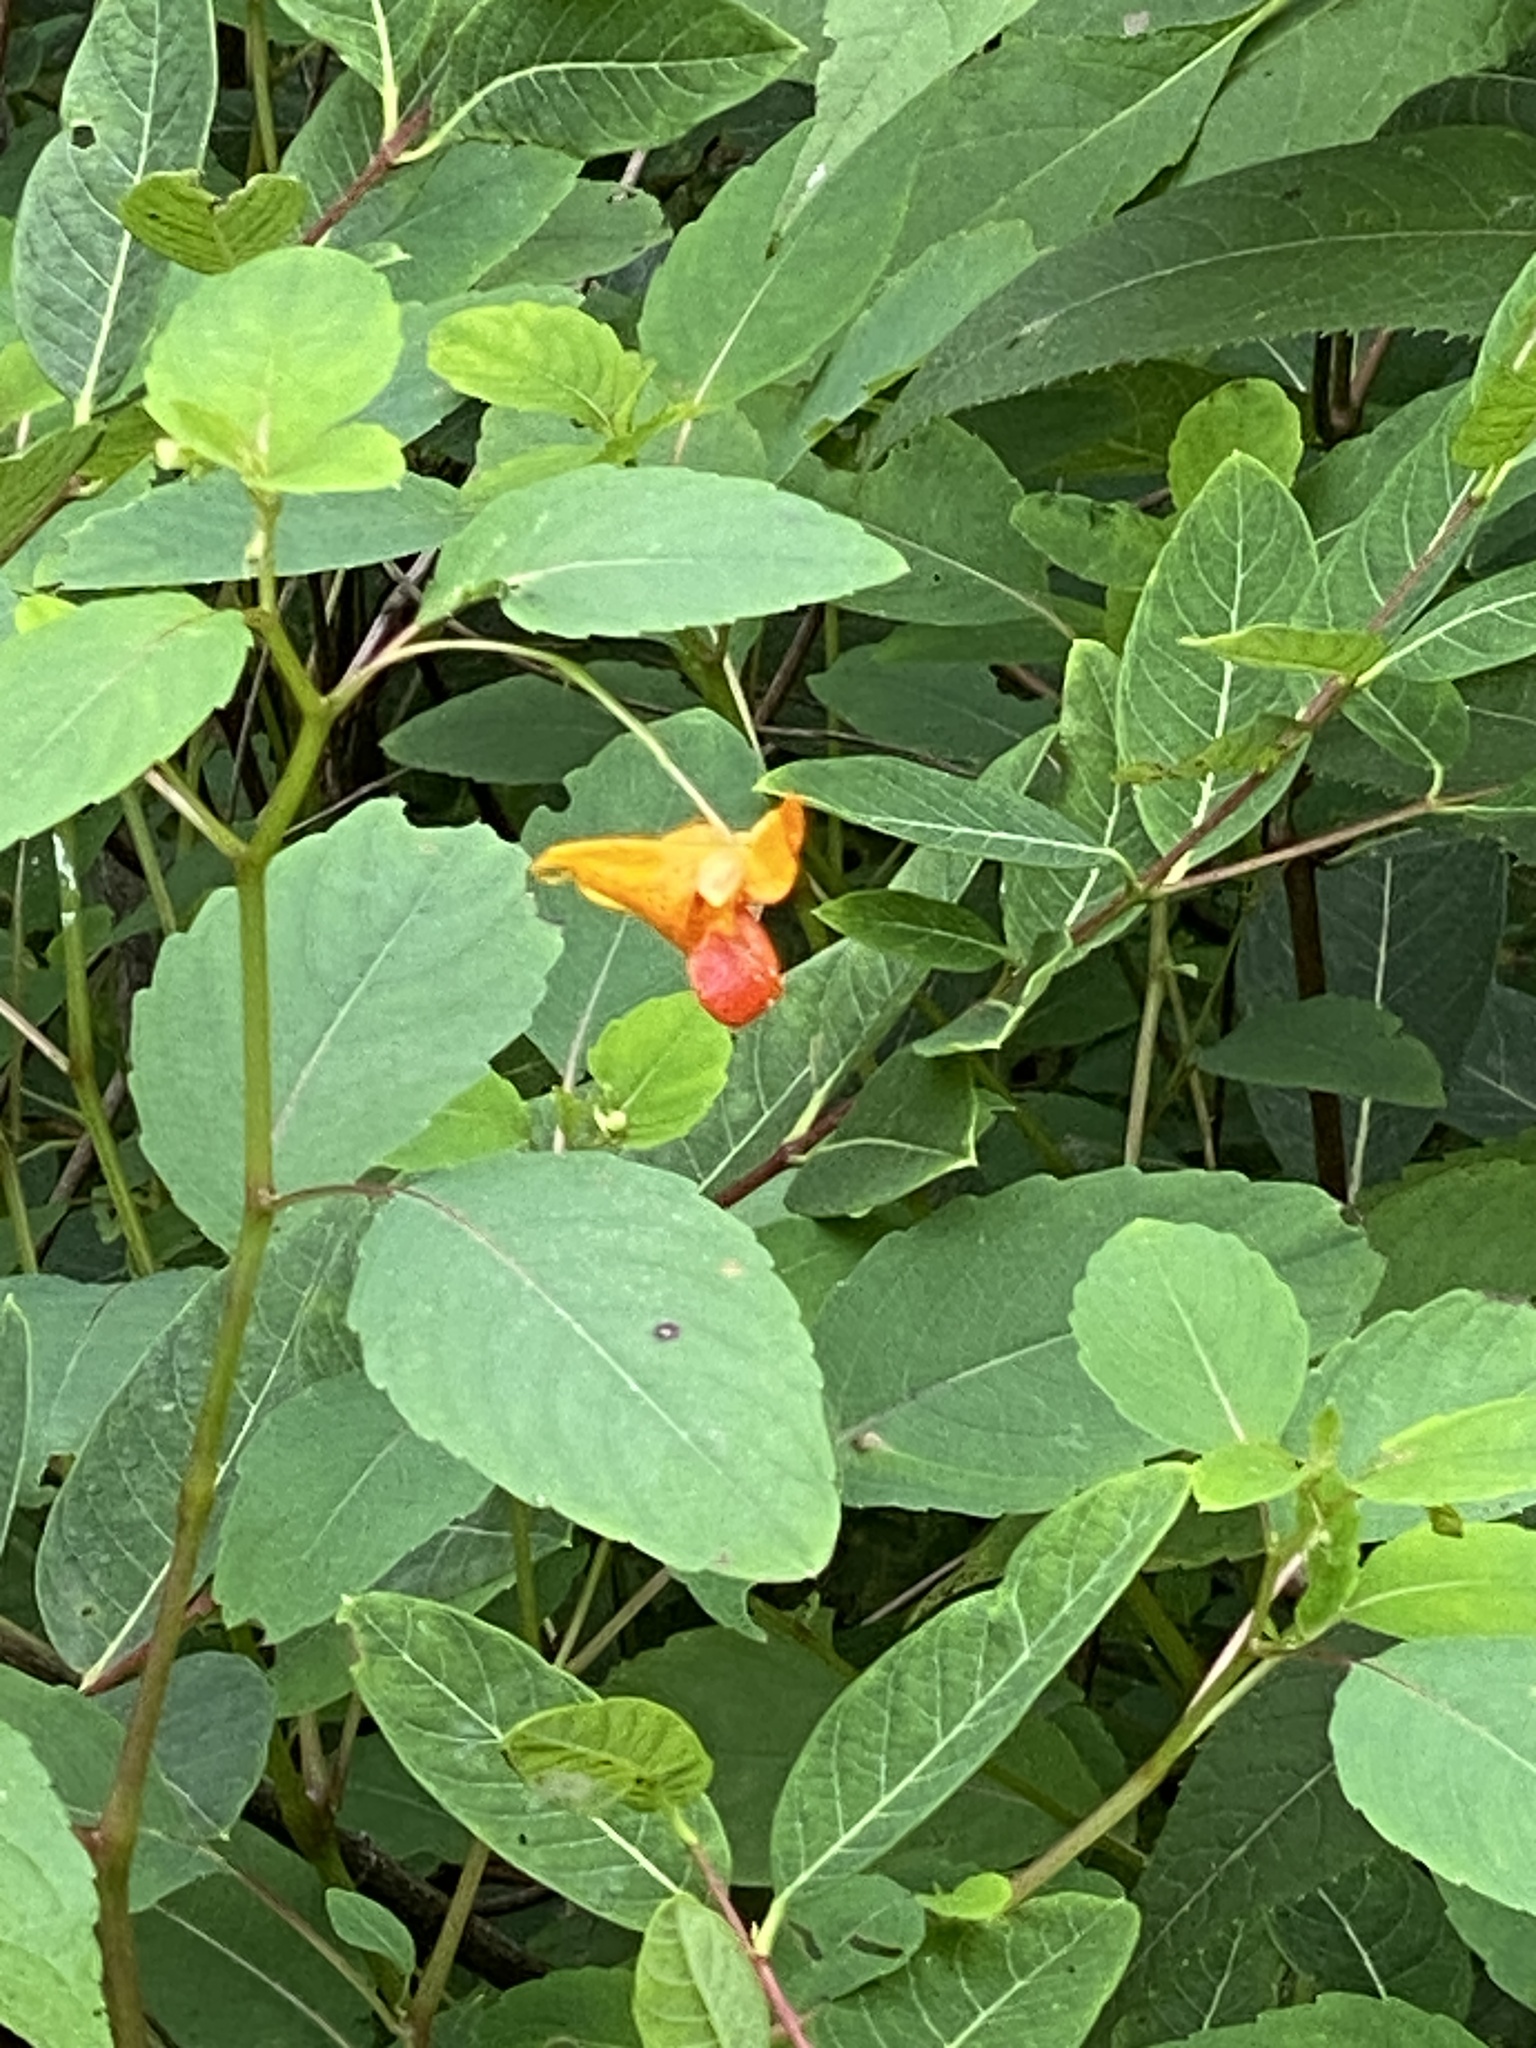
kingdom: Plantae
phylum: Tracheophyta
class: Magnoliopsida
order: Ericales
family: Balsaminaceae
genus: Impatiens
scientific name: Impatiens capensis
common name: Orange balsam
